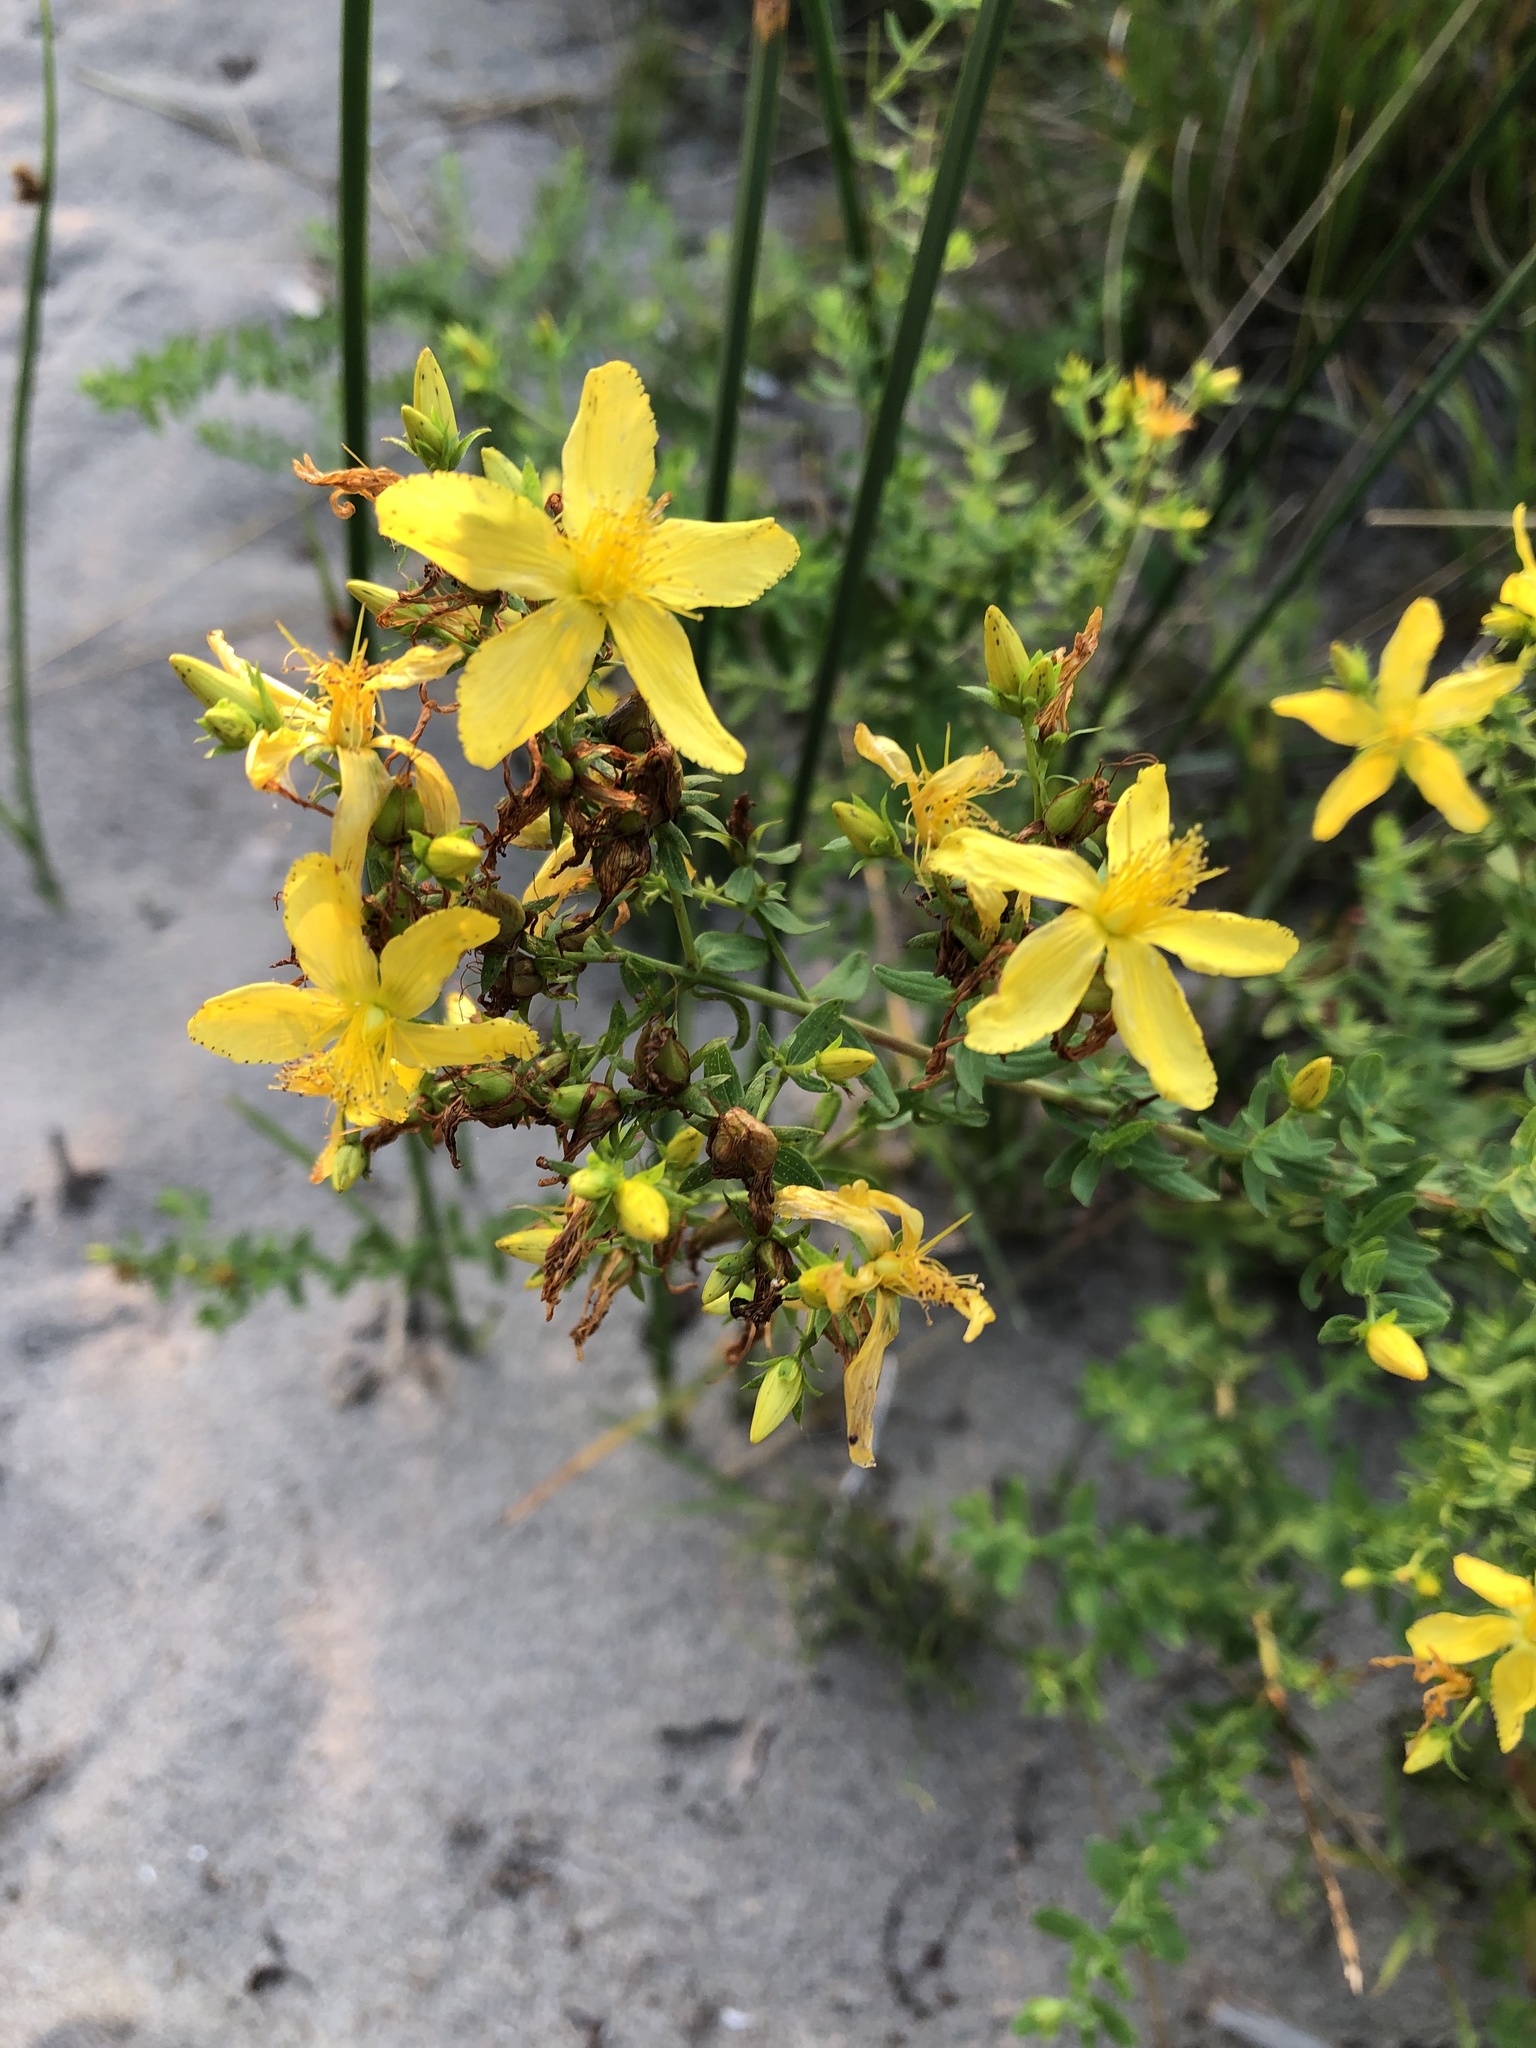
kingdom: Plantae
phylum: Tracheophyta
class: Magnoliopsida
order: Malpighiales
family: Hypericaceae
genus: Hypericum
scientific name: Hypericum perforatum
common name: Common st. johnswort
